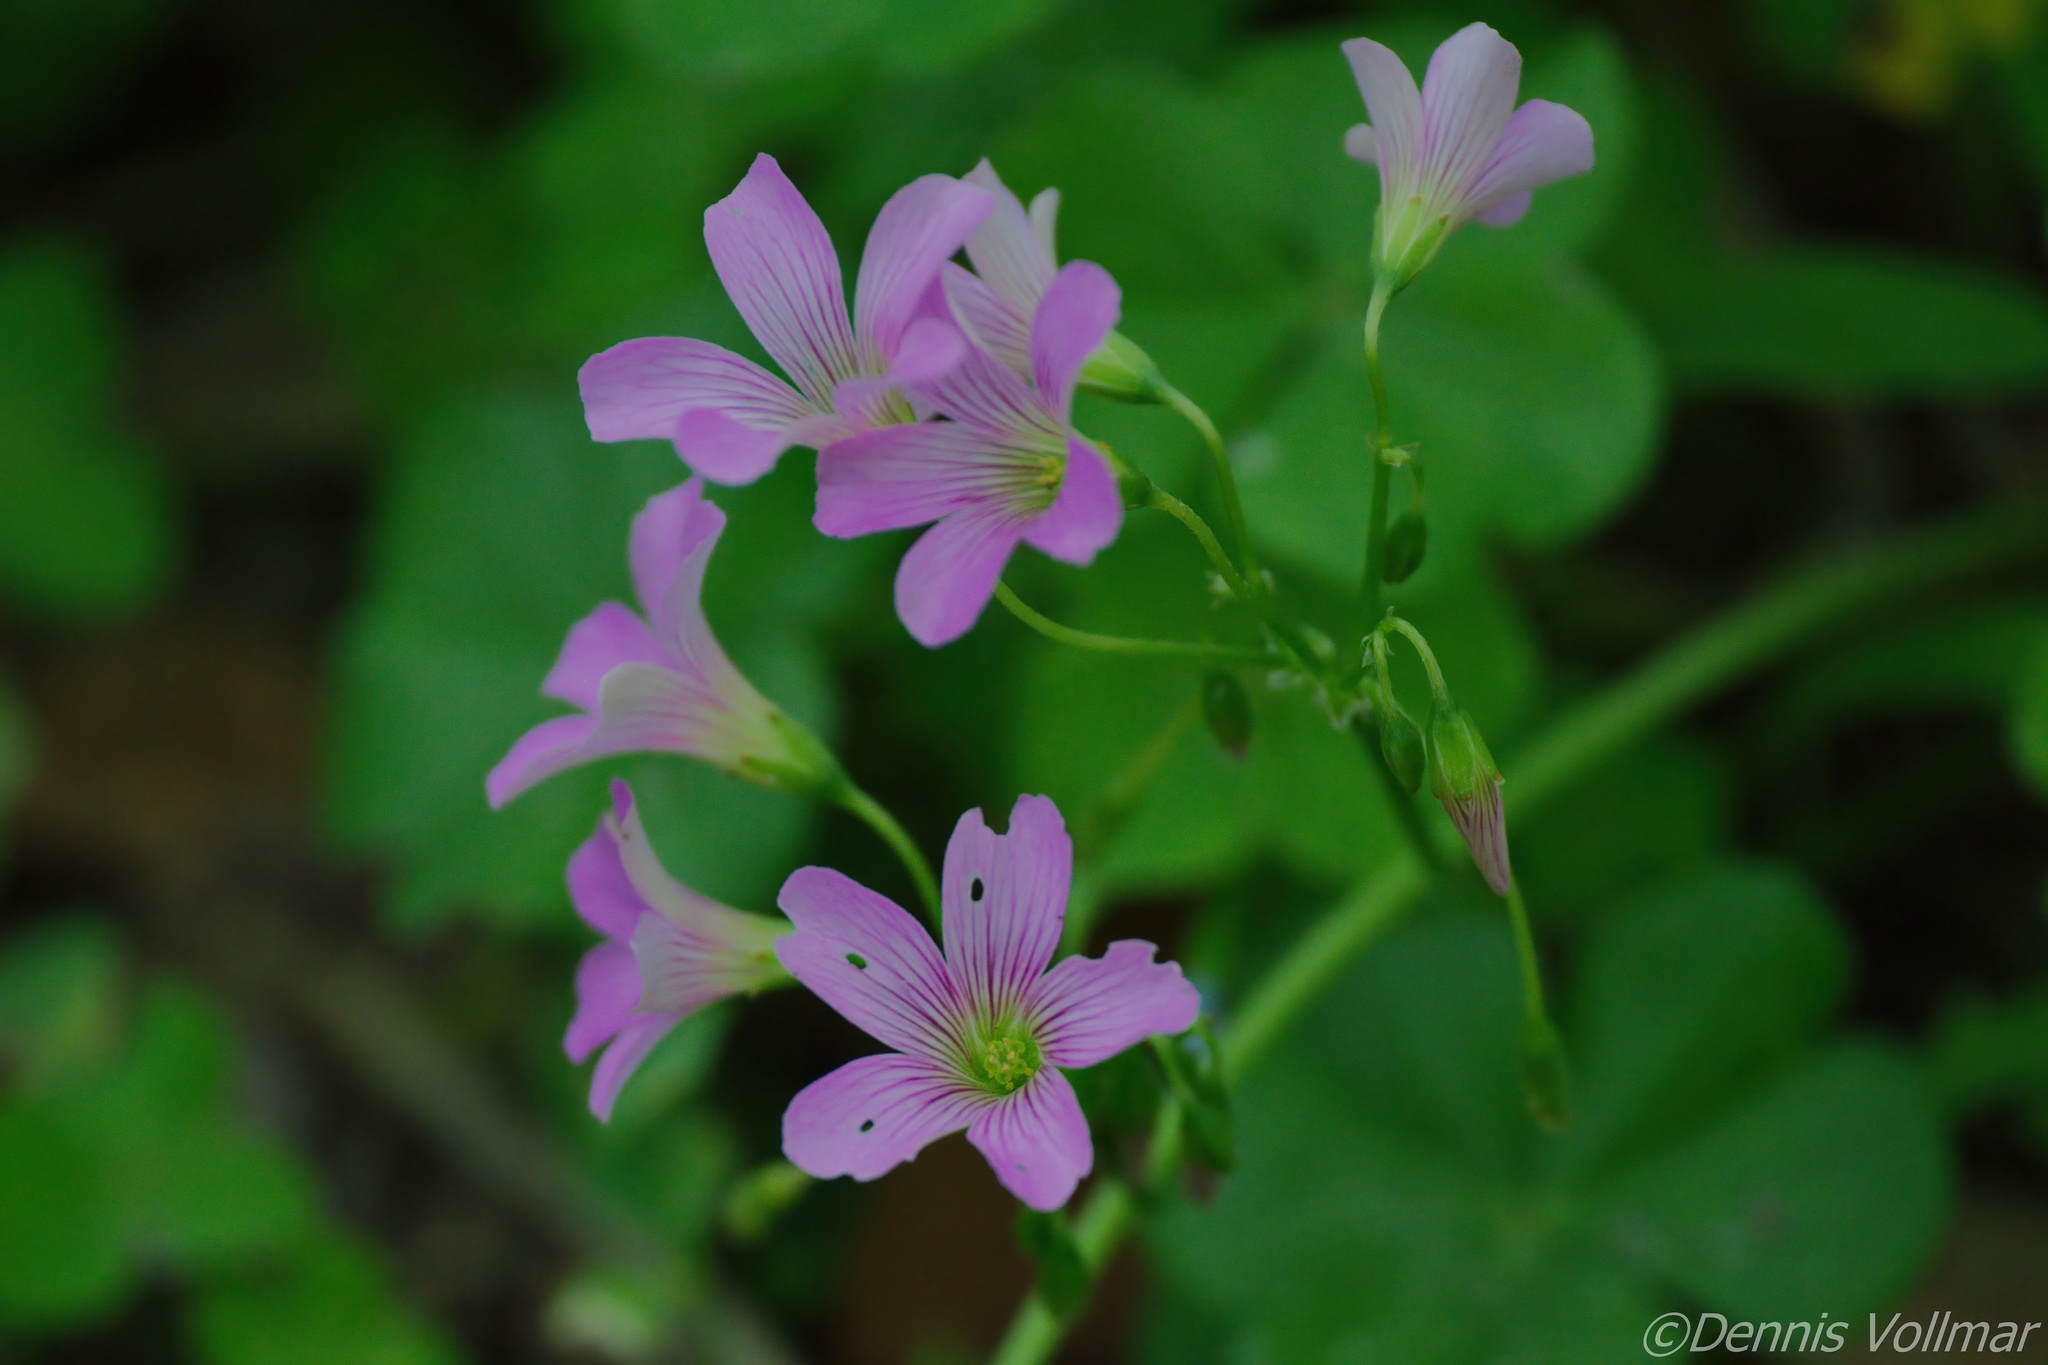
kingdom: Plantae
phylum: Tracheophyta
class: Magnoliopsida
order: Oxalidales
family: Oxalidaceae
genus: Oxalis
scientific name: Oxalis debilis
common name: Large-flowered pink-sorrel
